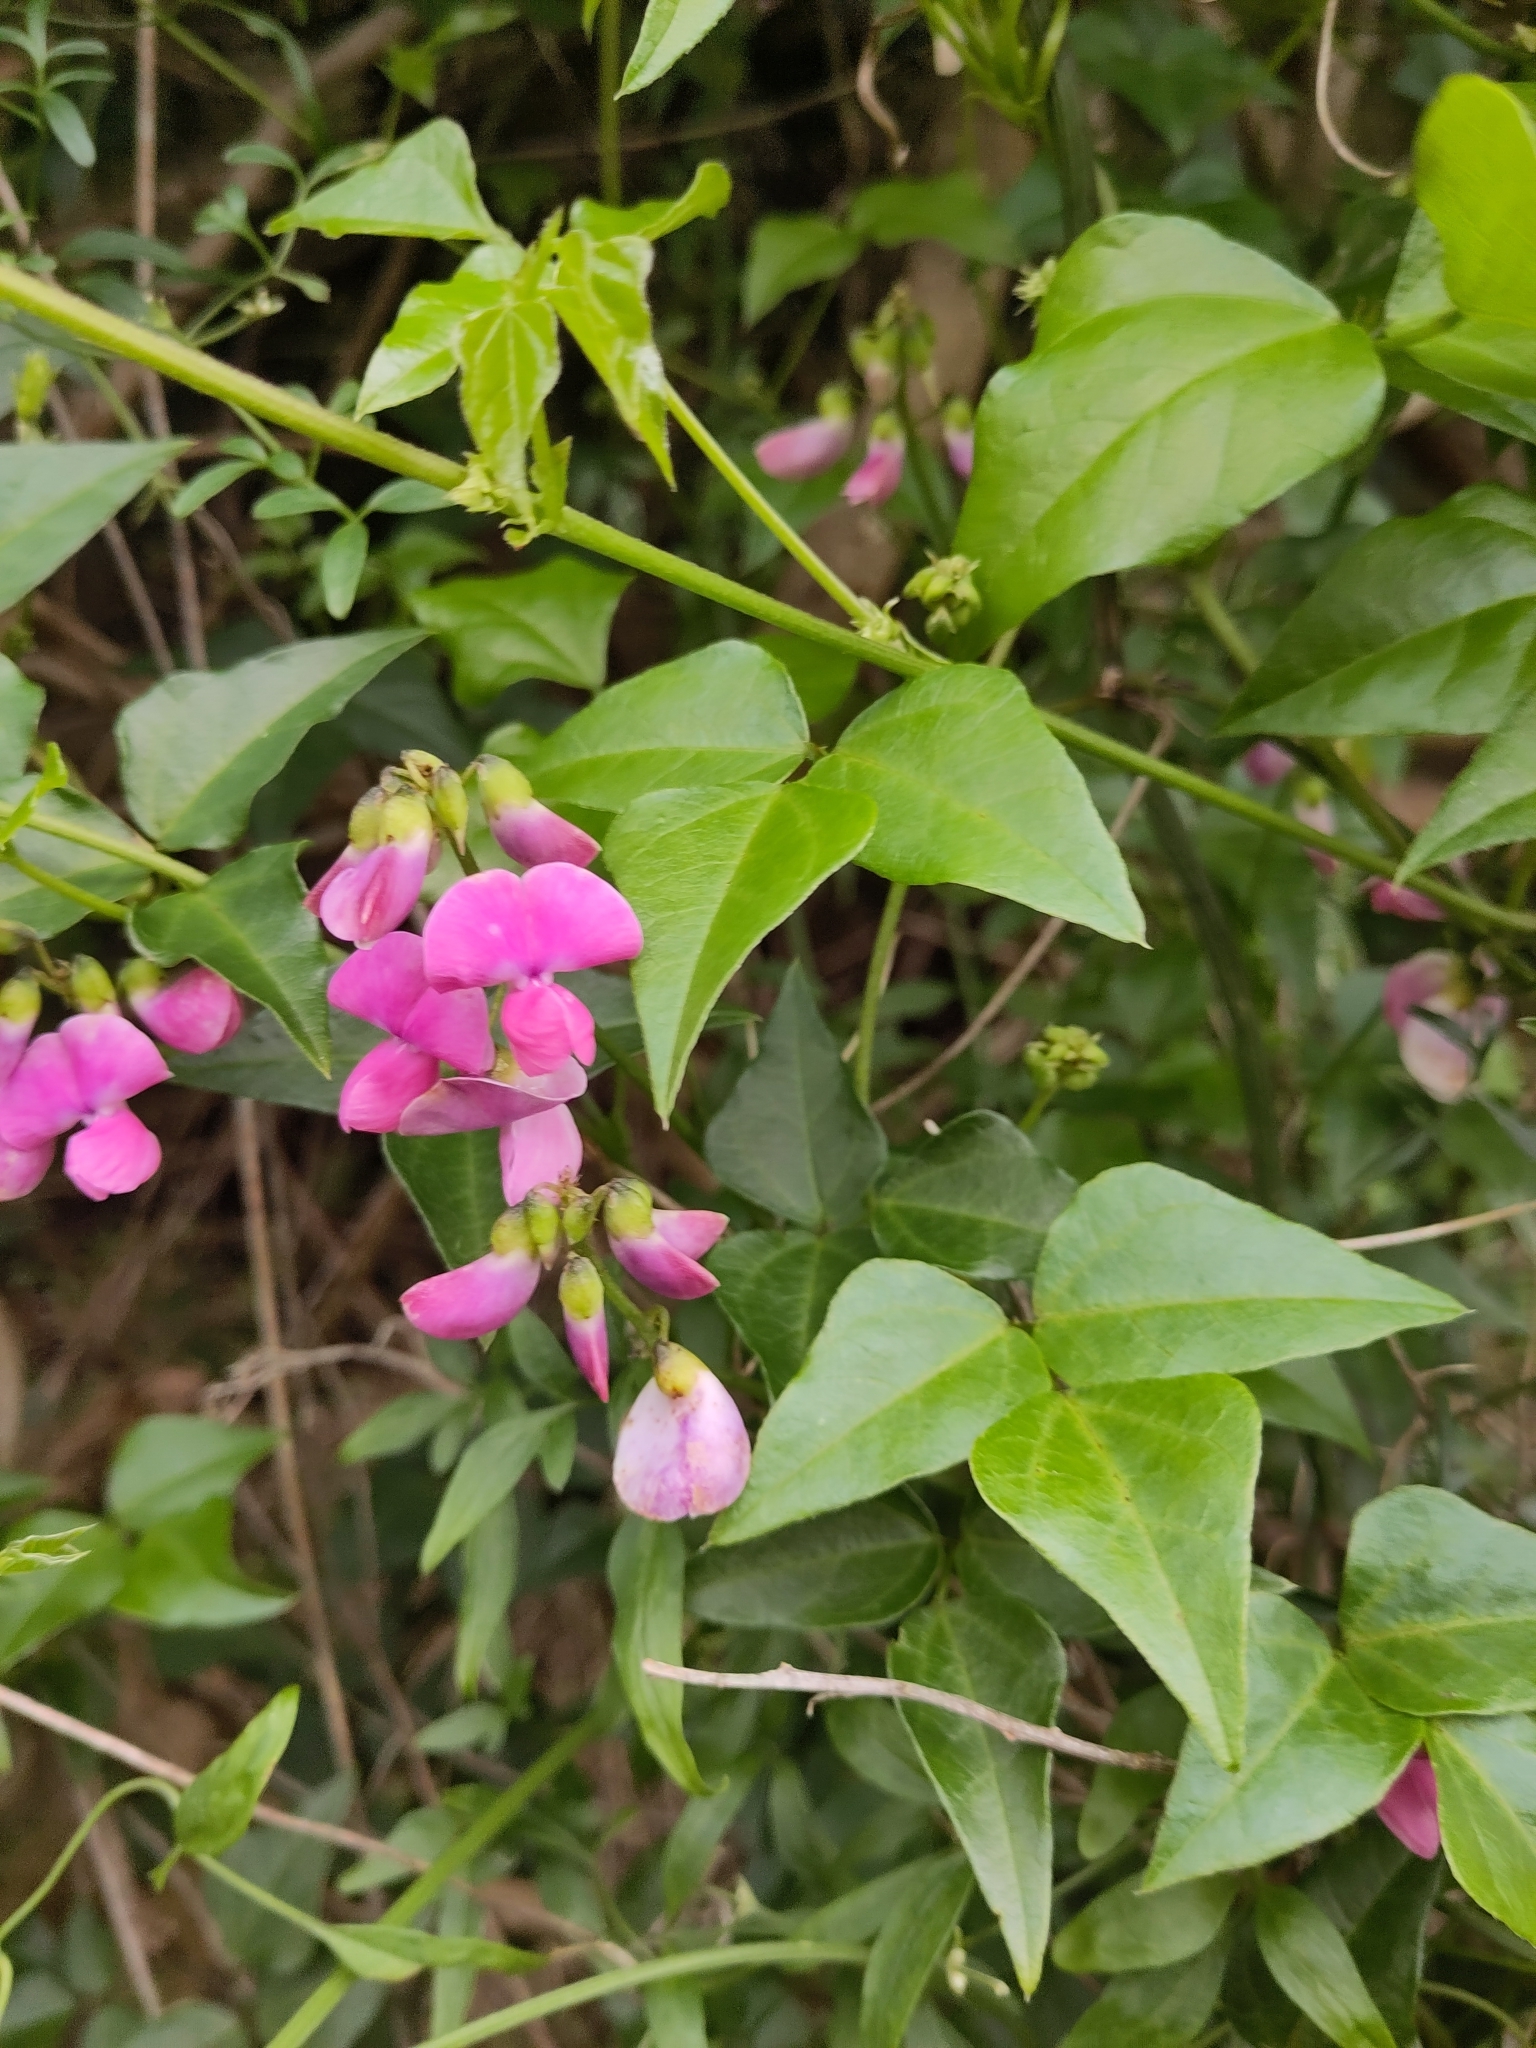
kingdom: Plantae
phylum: Tracheophyta
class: Magnoliopsida
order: Fabales
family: Fabaceae
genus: Dipogon
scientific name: Dipogon lignosus
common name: Okie bean
